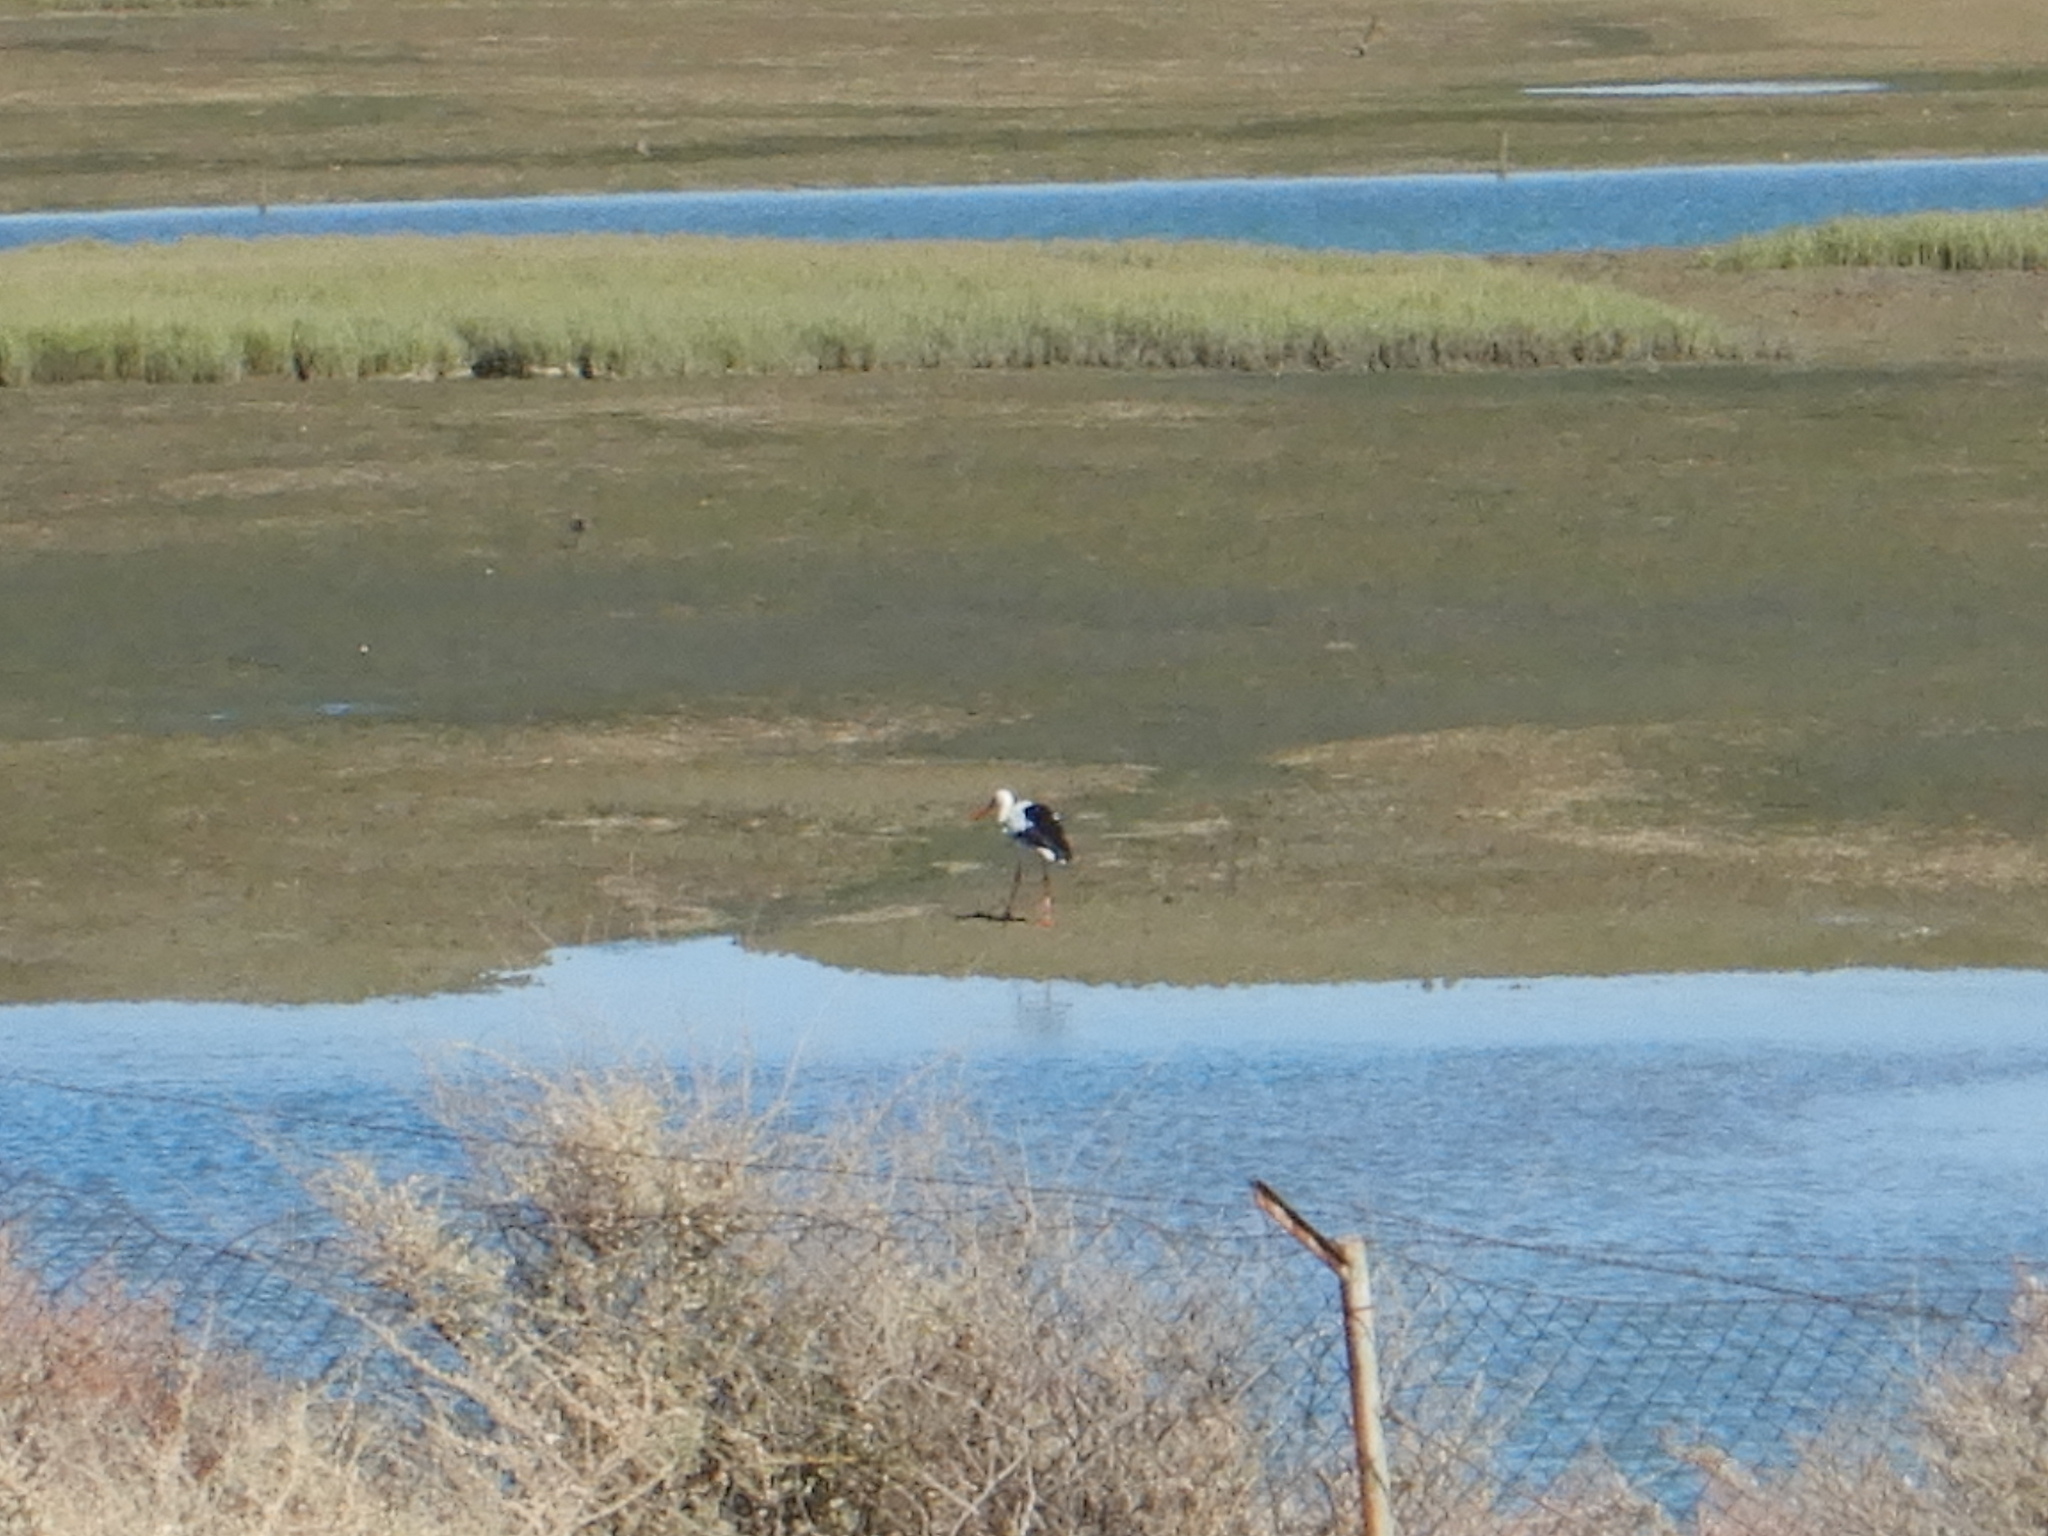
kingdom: Animalia
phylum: Chordata
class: Aves
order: Ciconiiformes
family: Ciconiidae
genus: Ciconia
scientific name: Ciconia ciconia
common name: White stork
